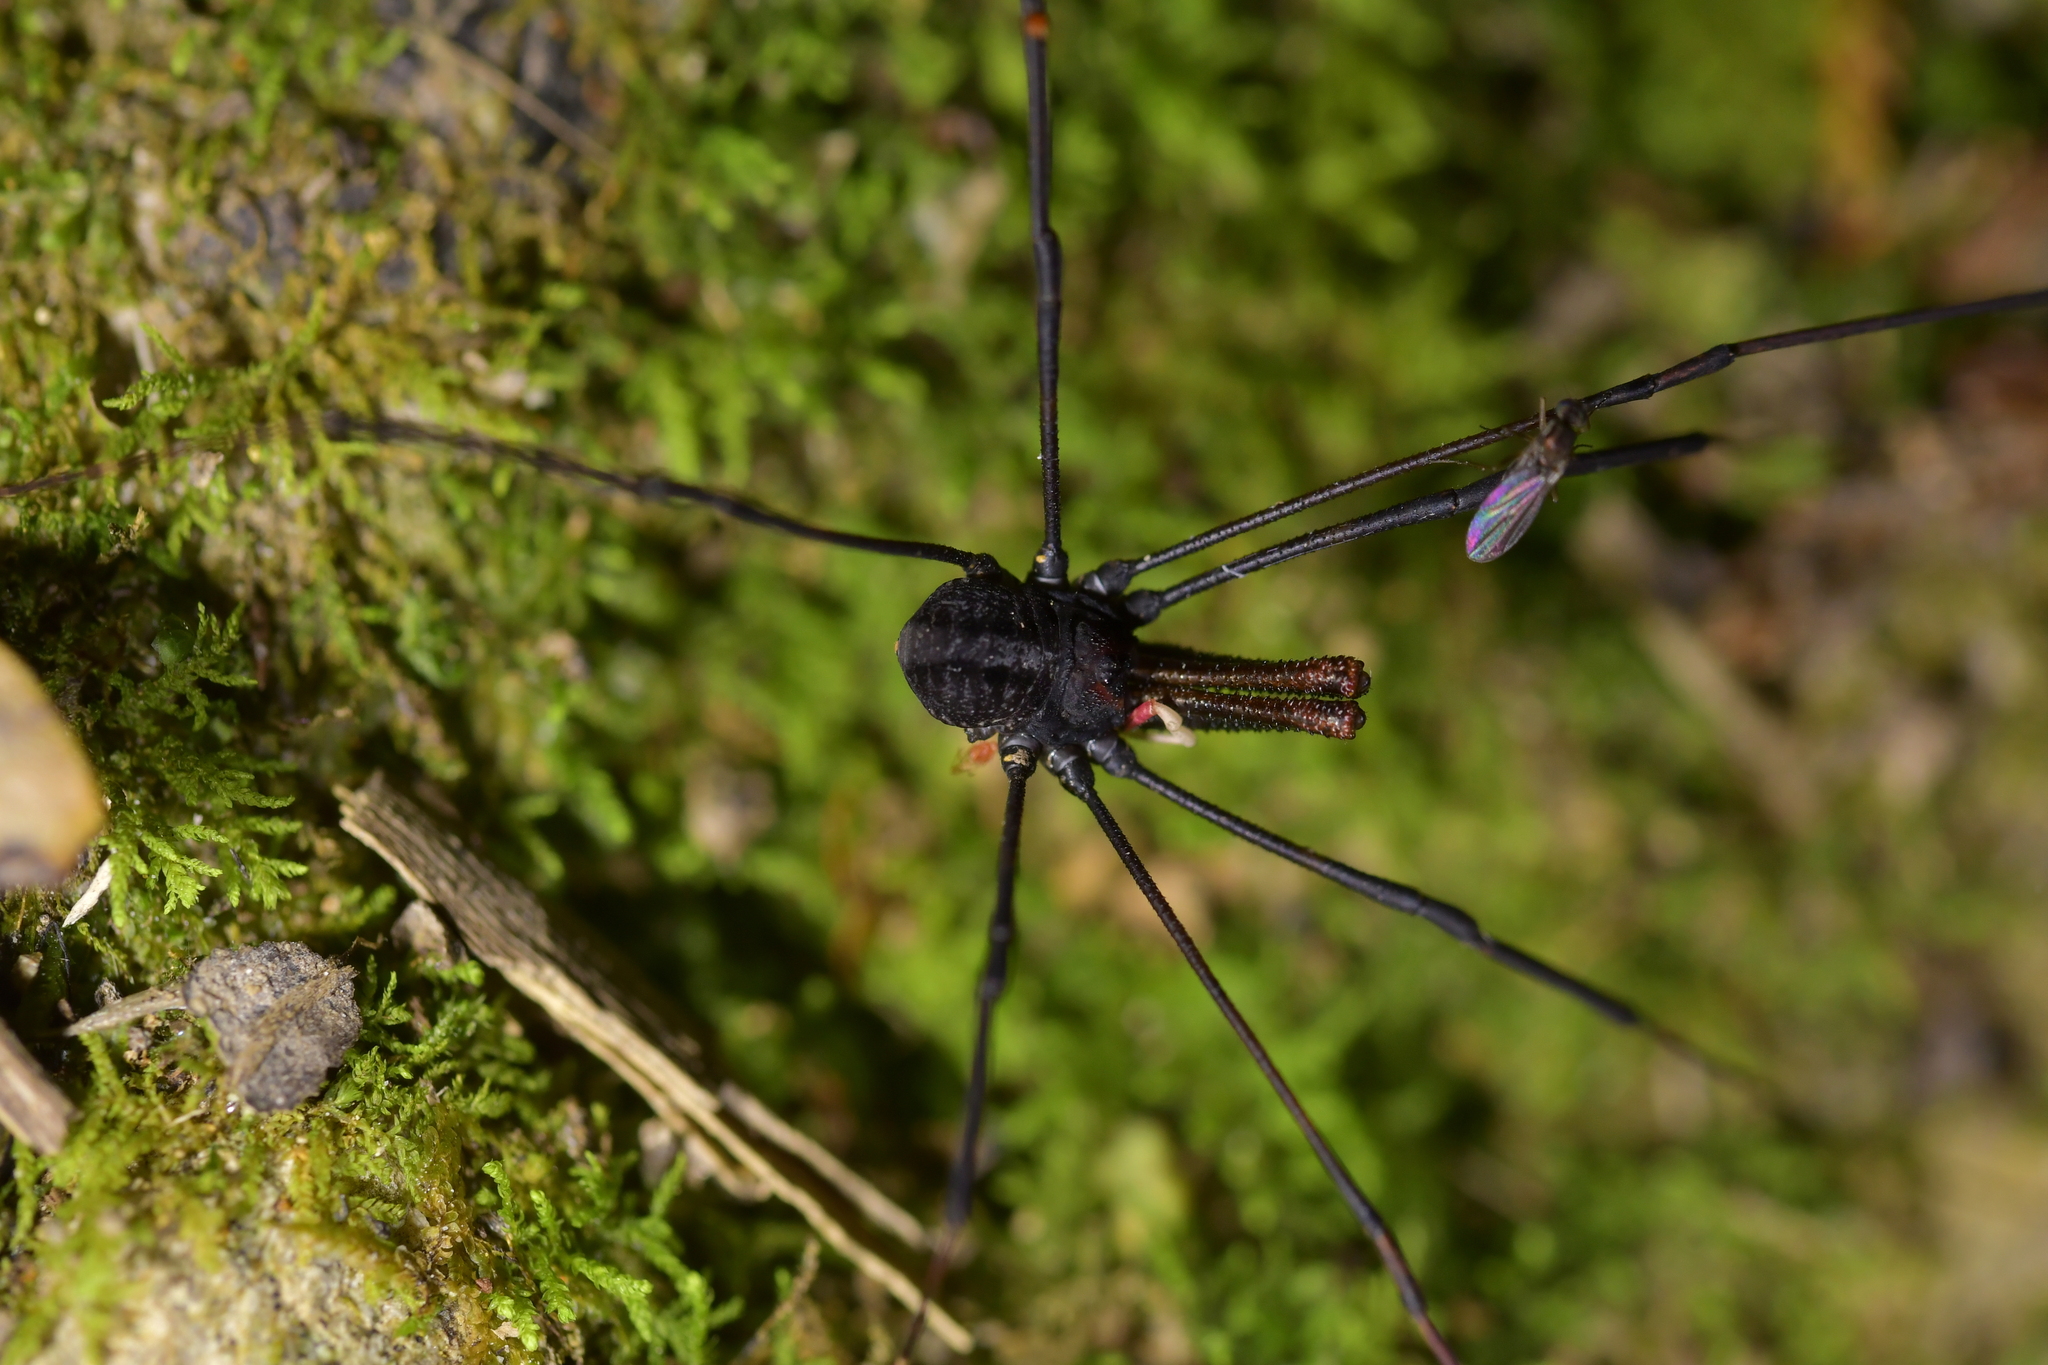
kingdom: Animalia
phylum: Arthropoda
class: Arachnida
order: Opiliones
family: Neopilionidae
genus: Forsteropsalis
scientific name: Forsteropsalis inconstans
